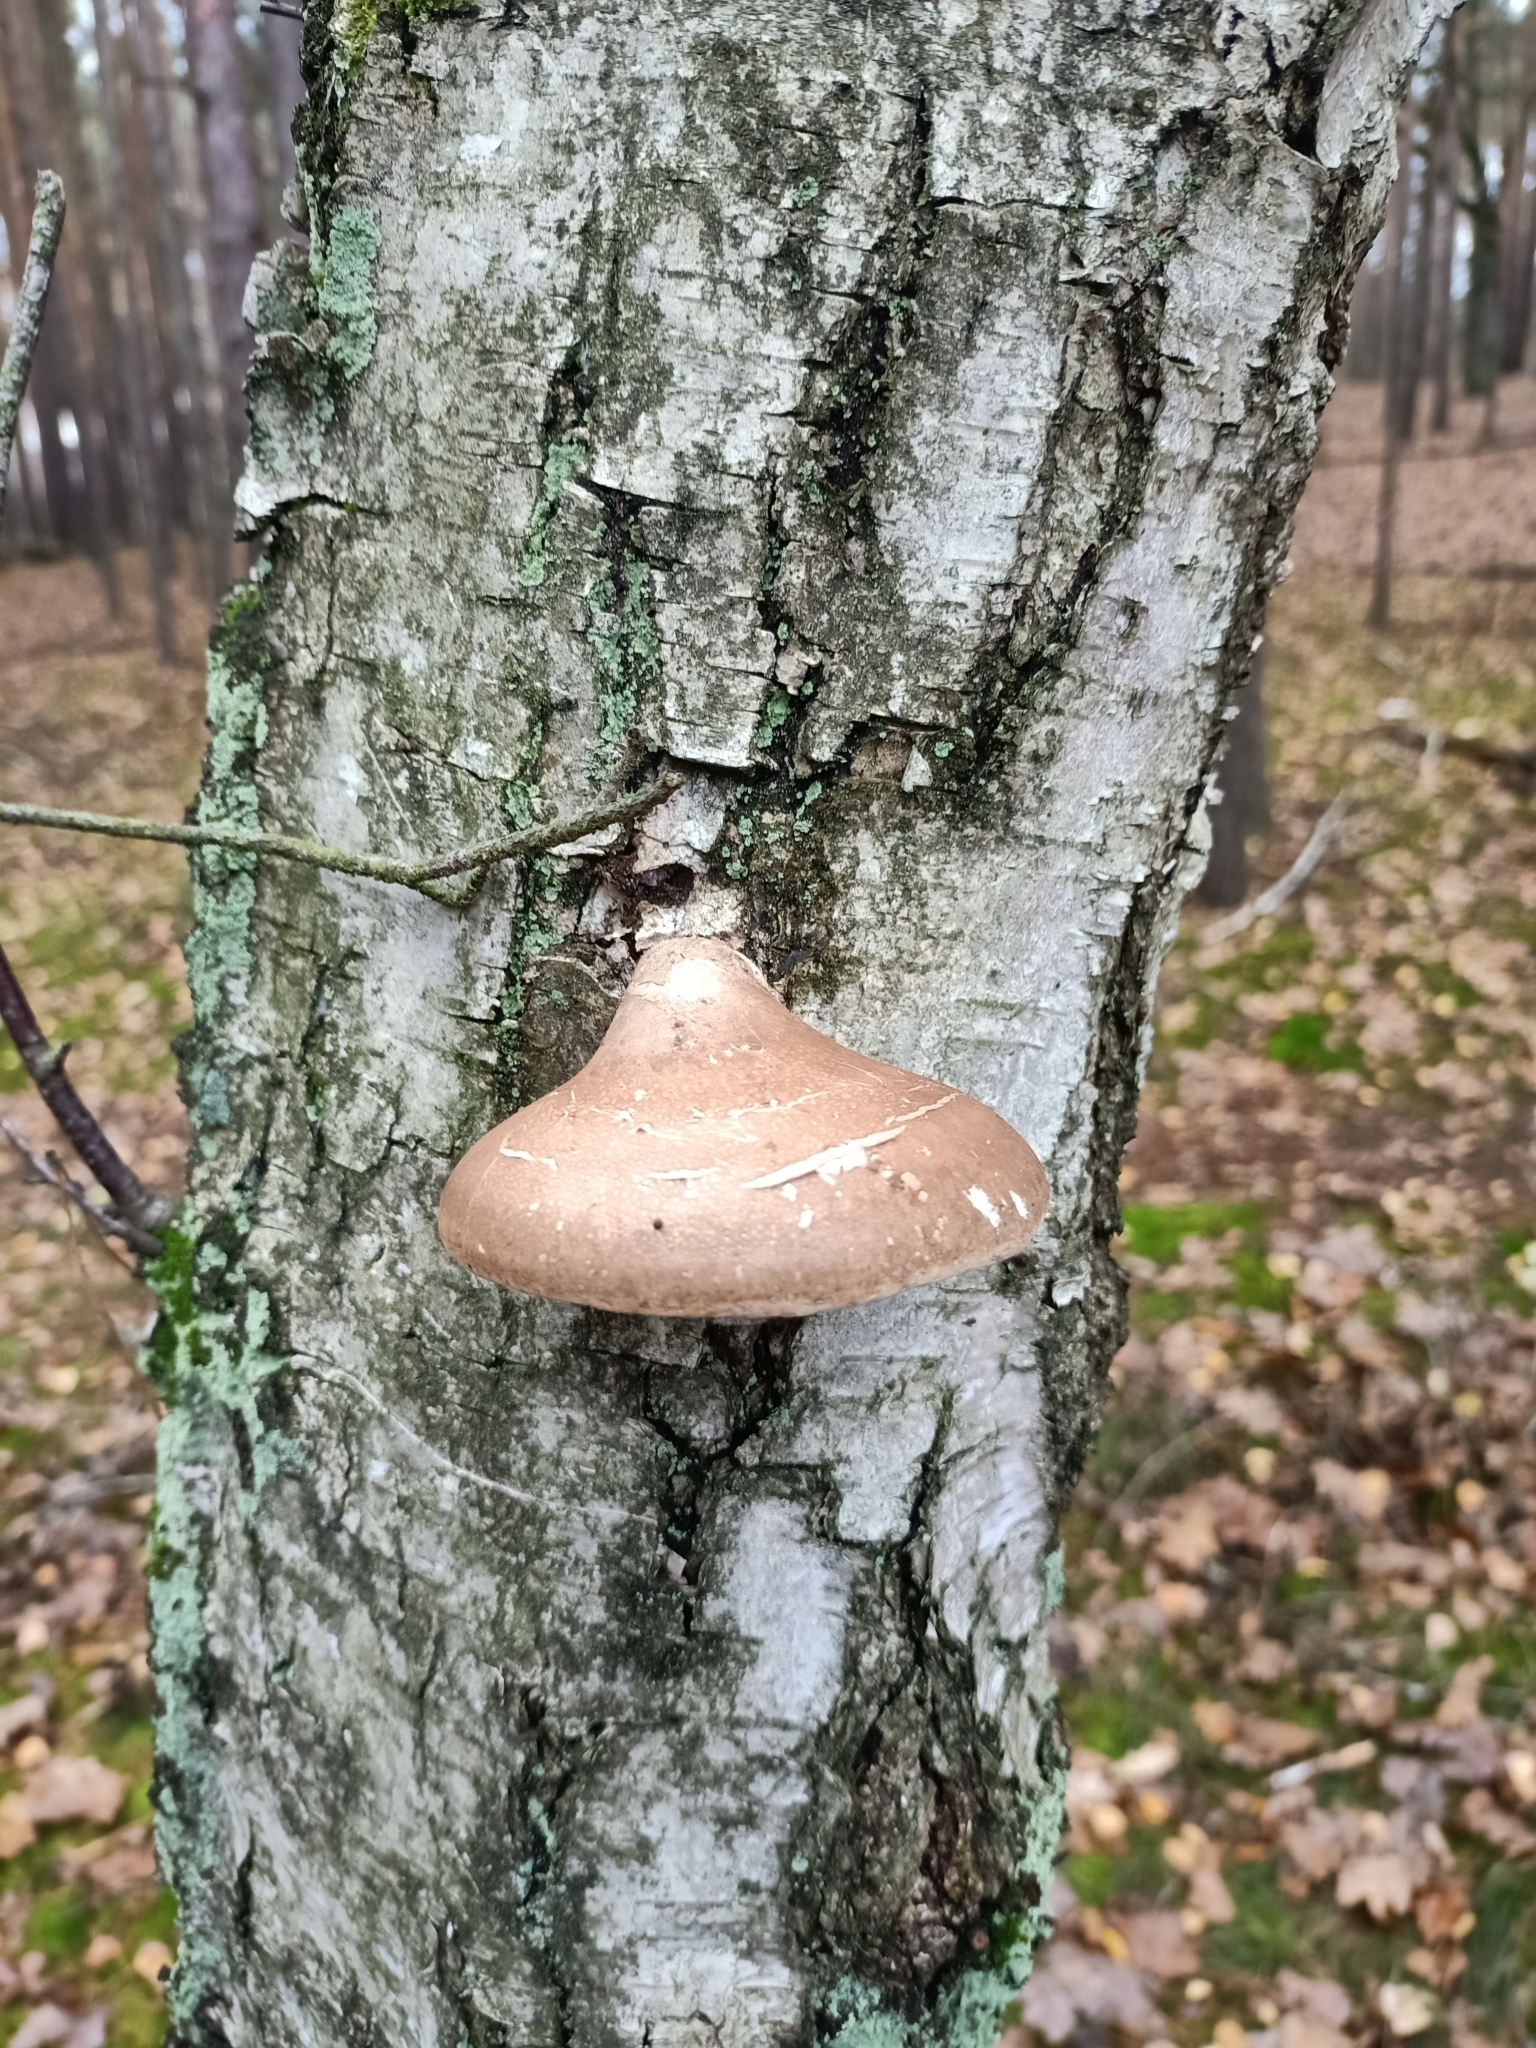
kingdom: Fungi
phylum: Basidiomycota
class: Agaricomycetes
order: Polyporales
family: Fomitopsidaceae
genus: Fomitopsis
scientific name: Fomitopsis betulina
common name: Birch polypore
